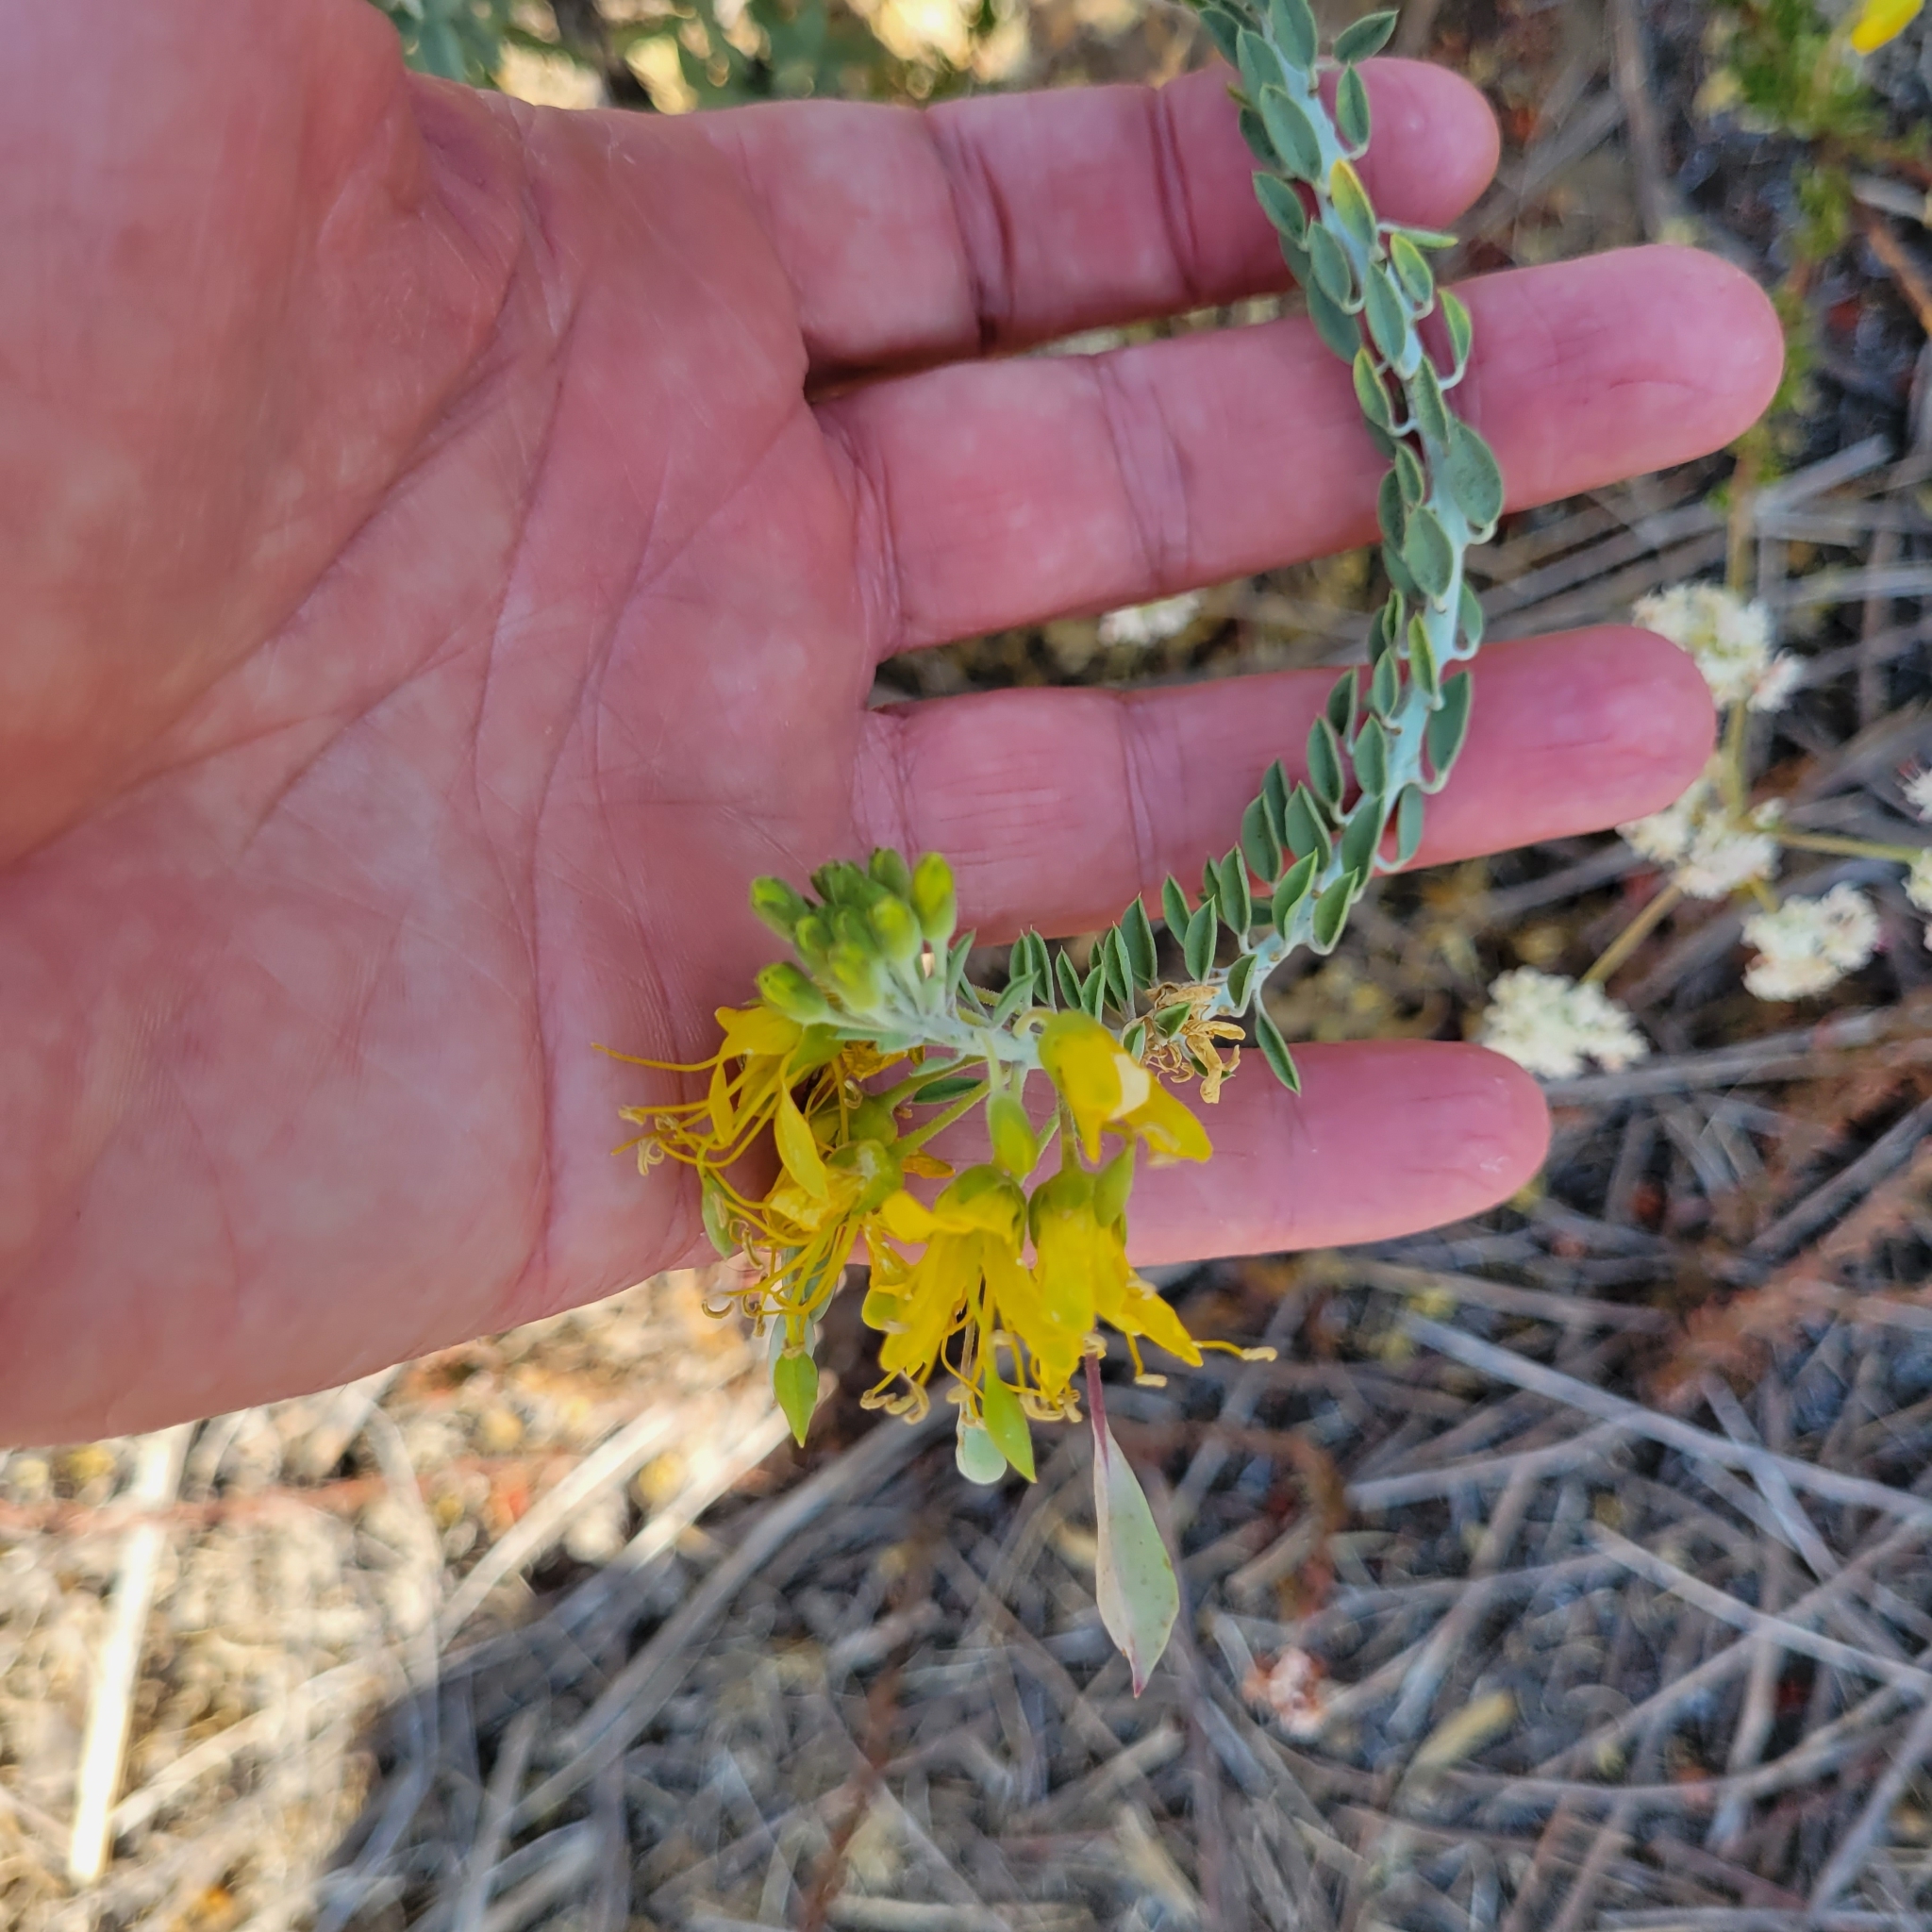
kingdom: Plantae
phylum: Tracheophyta
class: Magnoliopsida
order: Brassicales
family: Cleomaceae
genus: Cleomella
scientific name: Cleomella arborea
